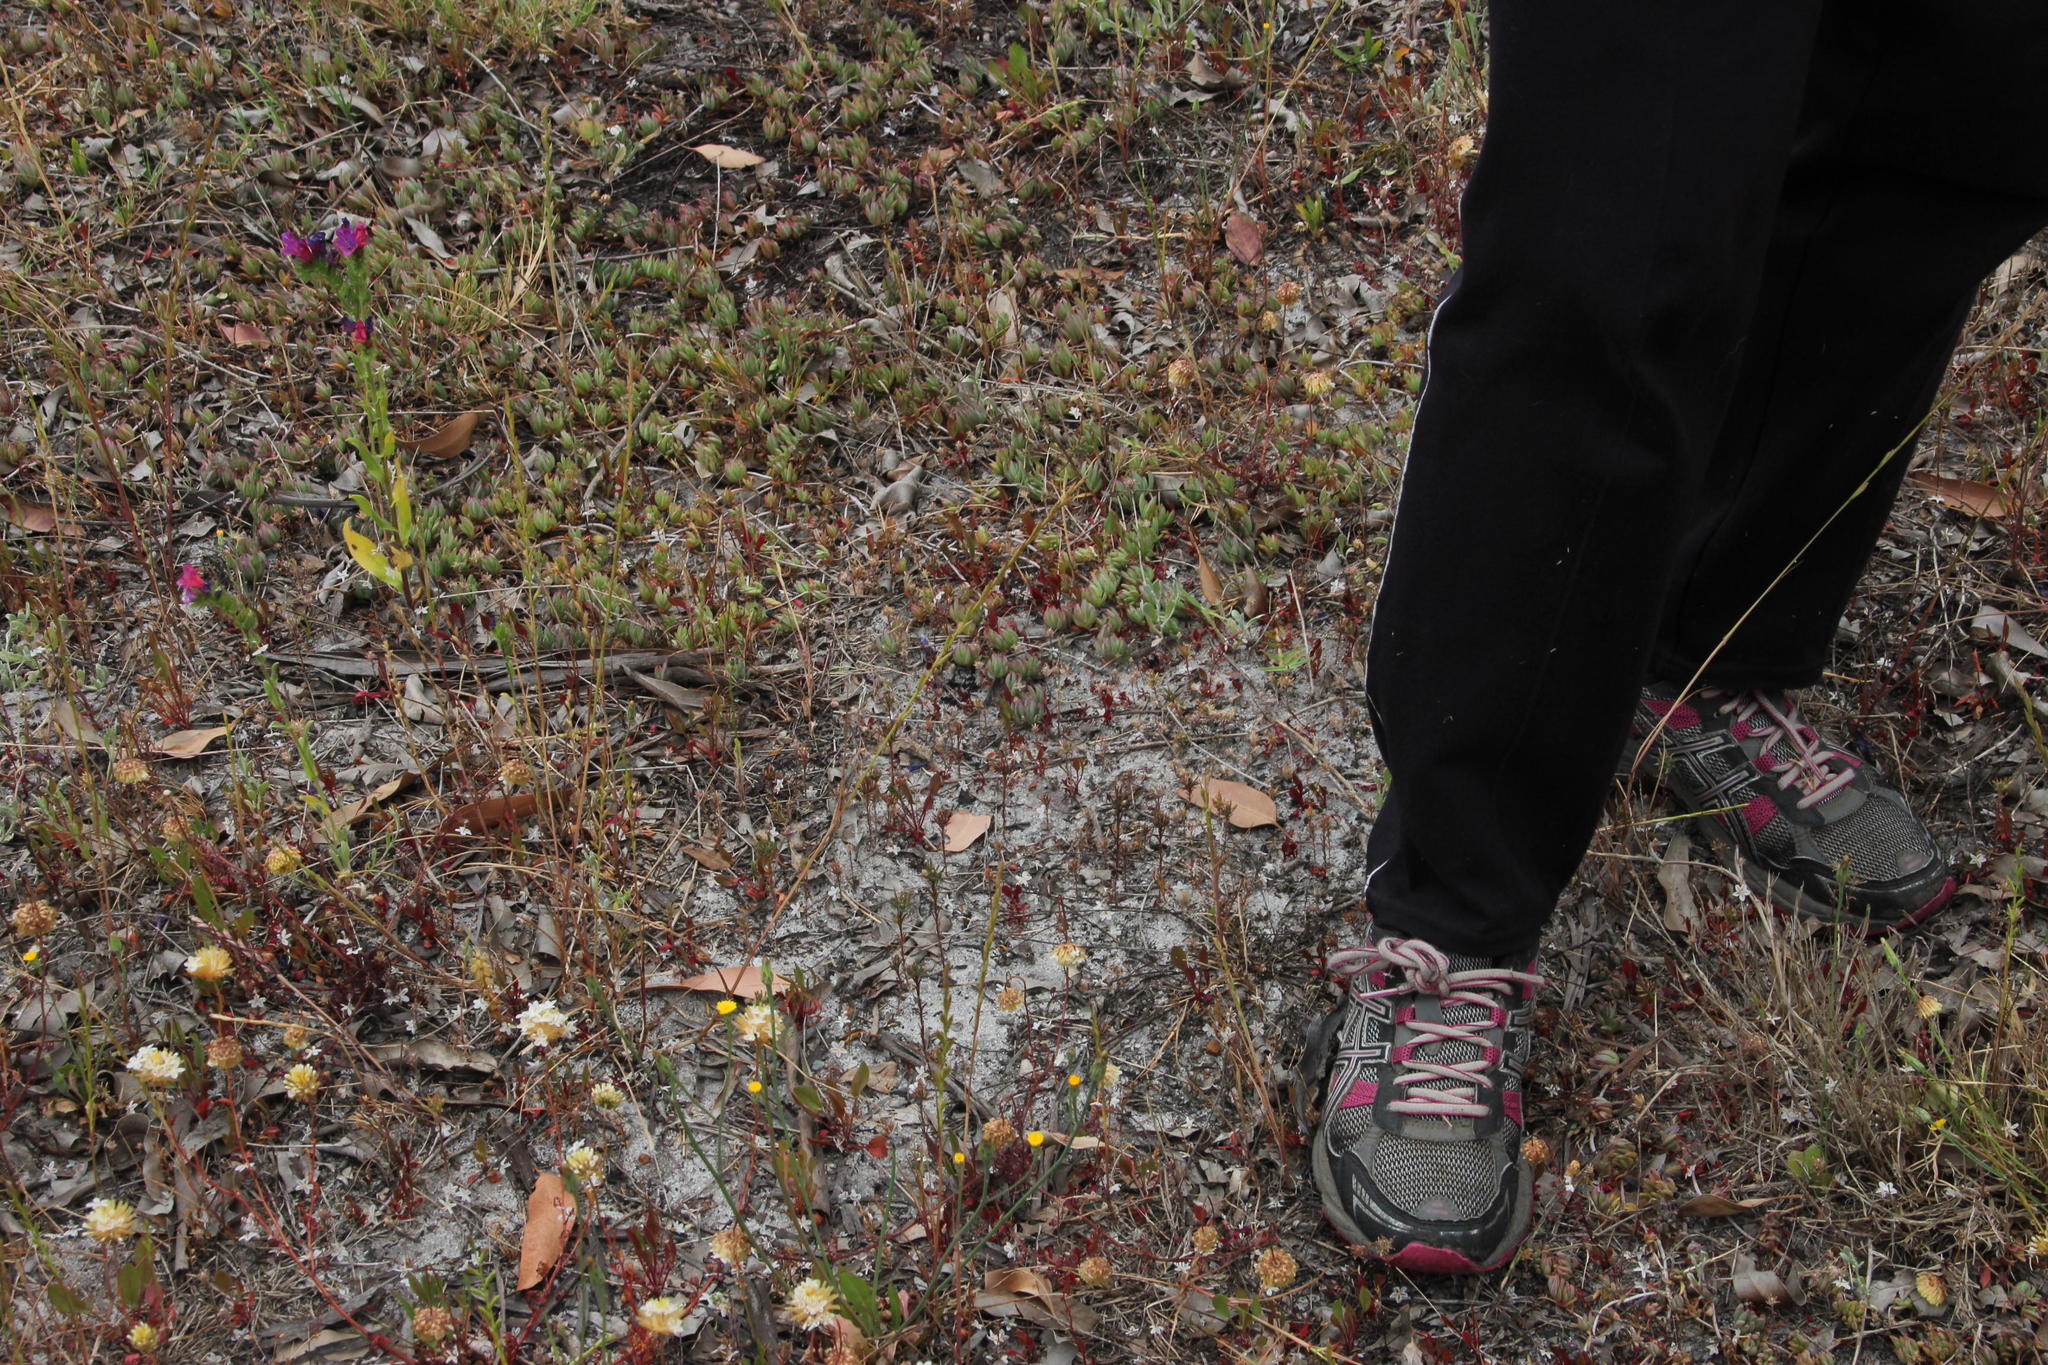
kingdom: Plantae
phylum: Tracheophyta
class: Magnoliopsida
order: Caryophyllales
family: Aizoaceae
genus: Lampranthus
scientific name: Lampranthus reptans
